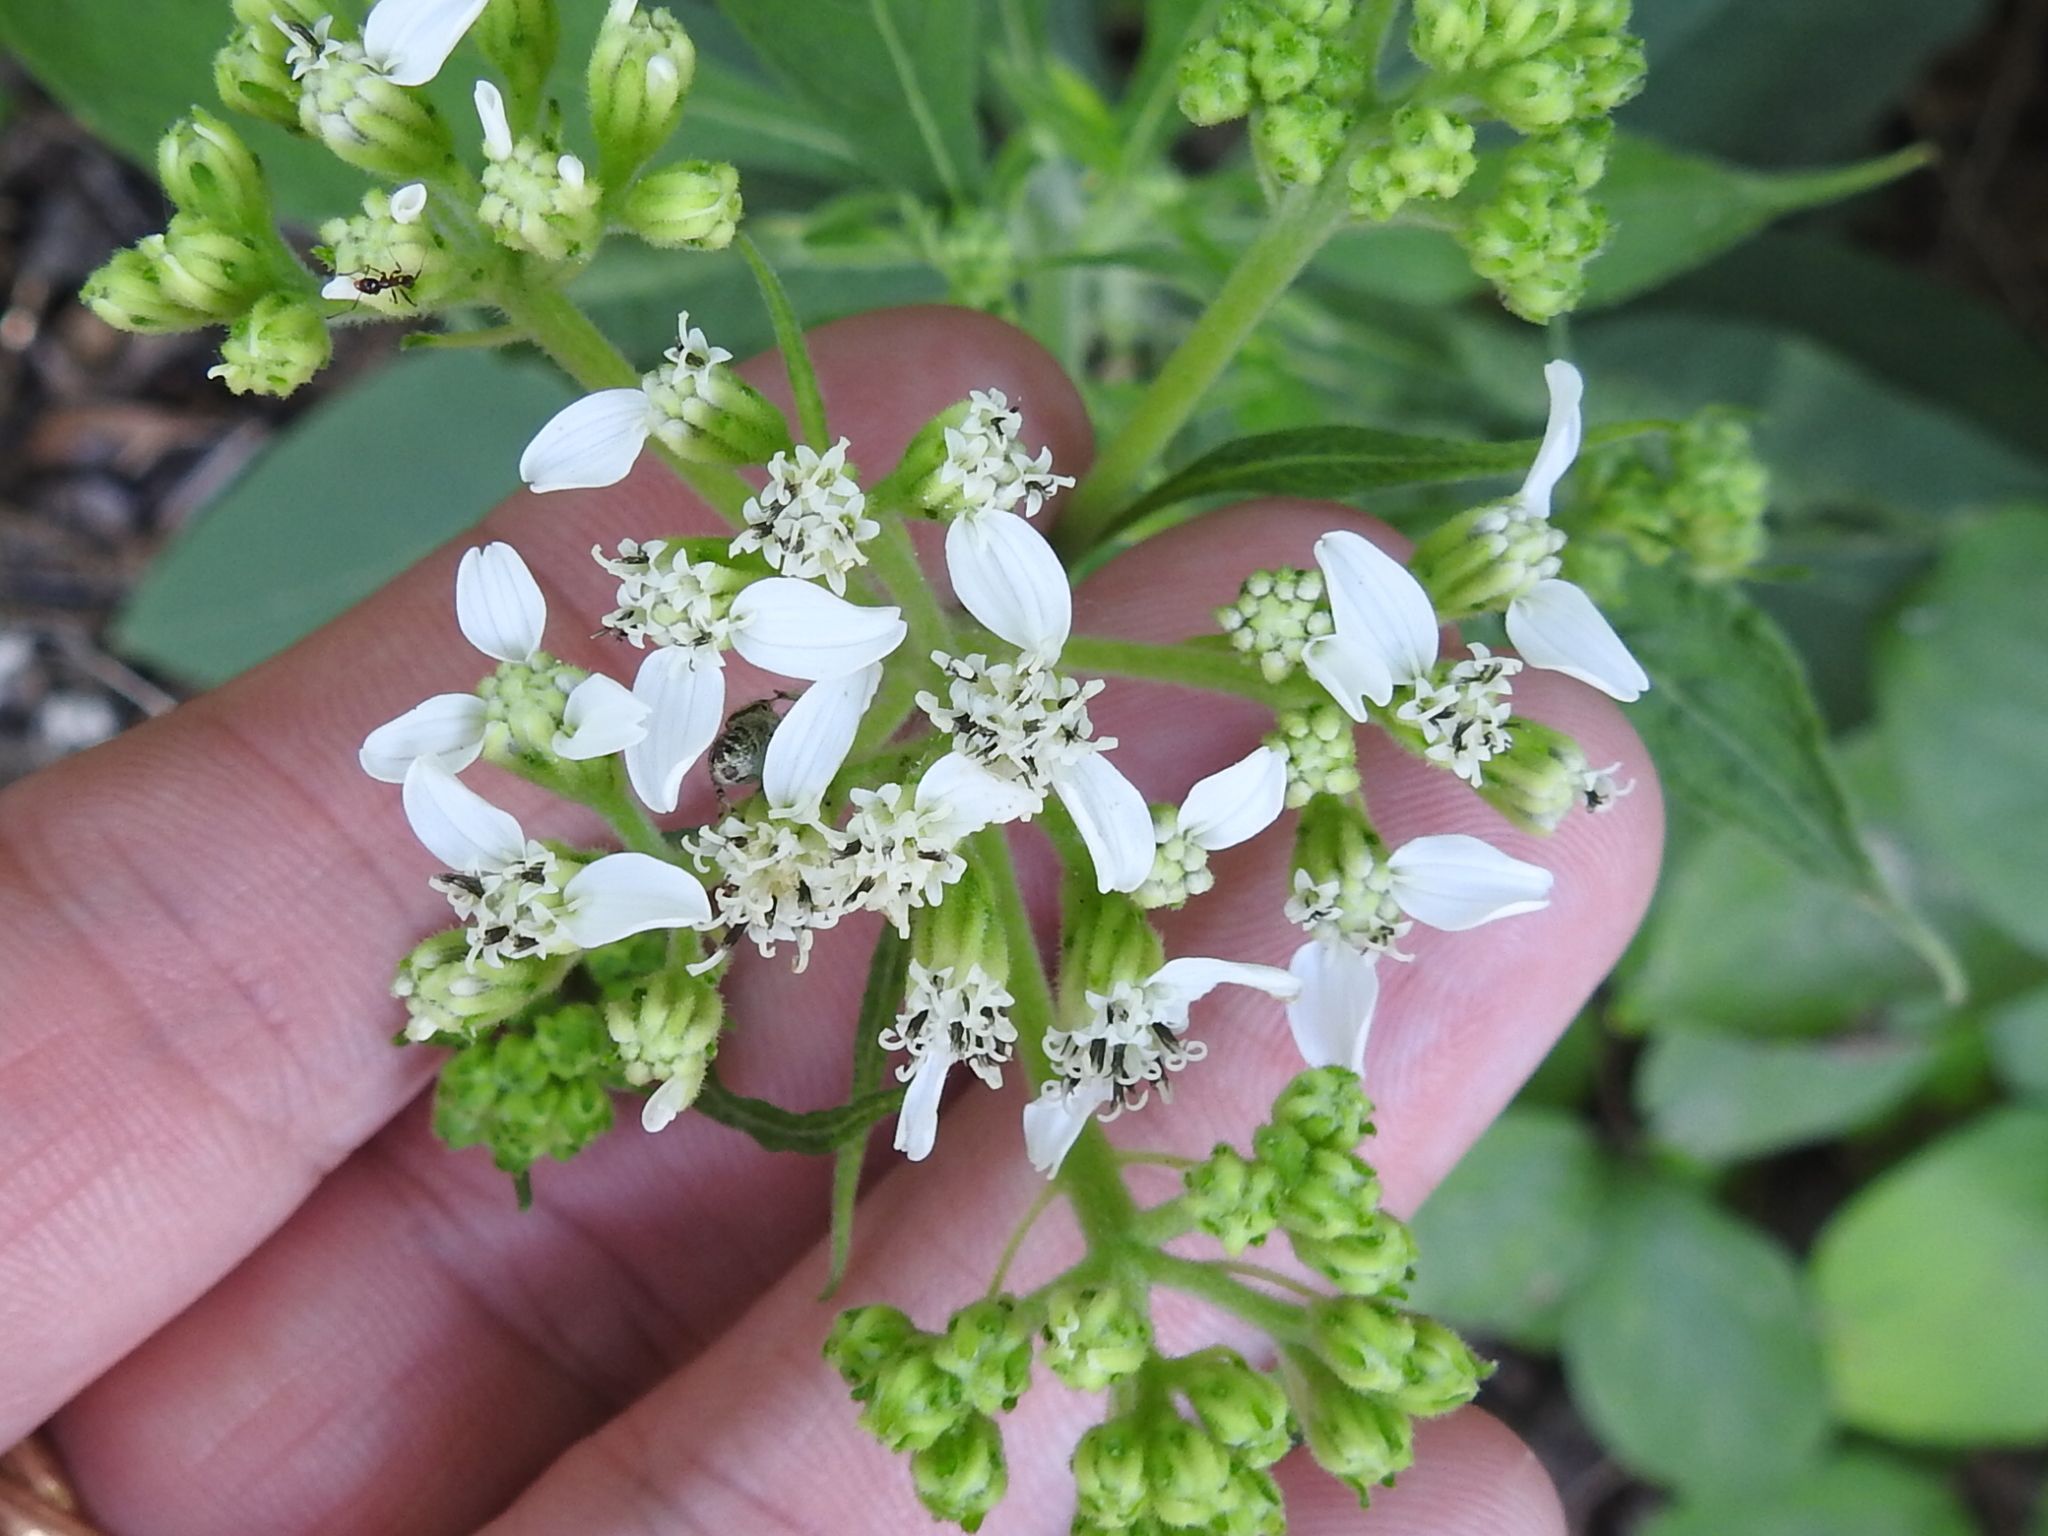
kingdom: Plantae
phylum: Tracheophyta
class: Magnoliopsida
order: Asterales
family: Asteraceae
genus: Verbesina
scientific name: Verbesina virginica
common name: Frostweed
